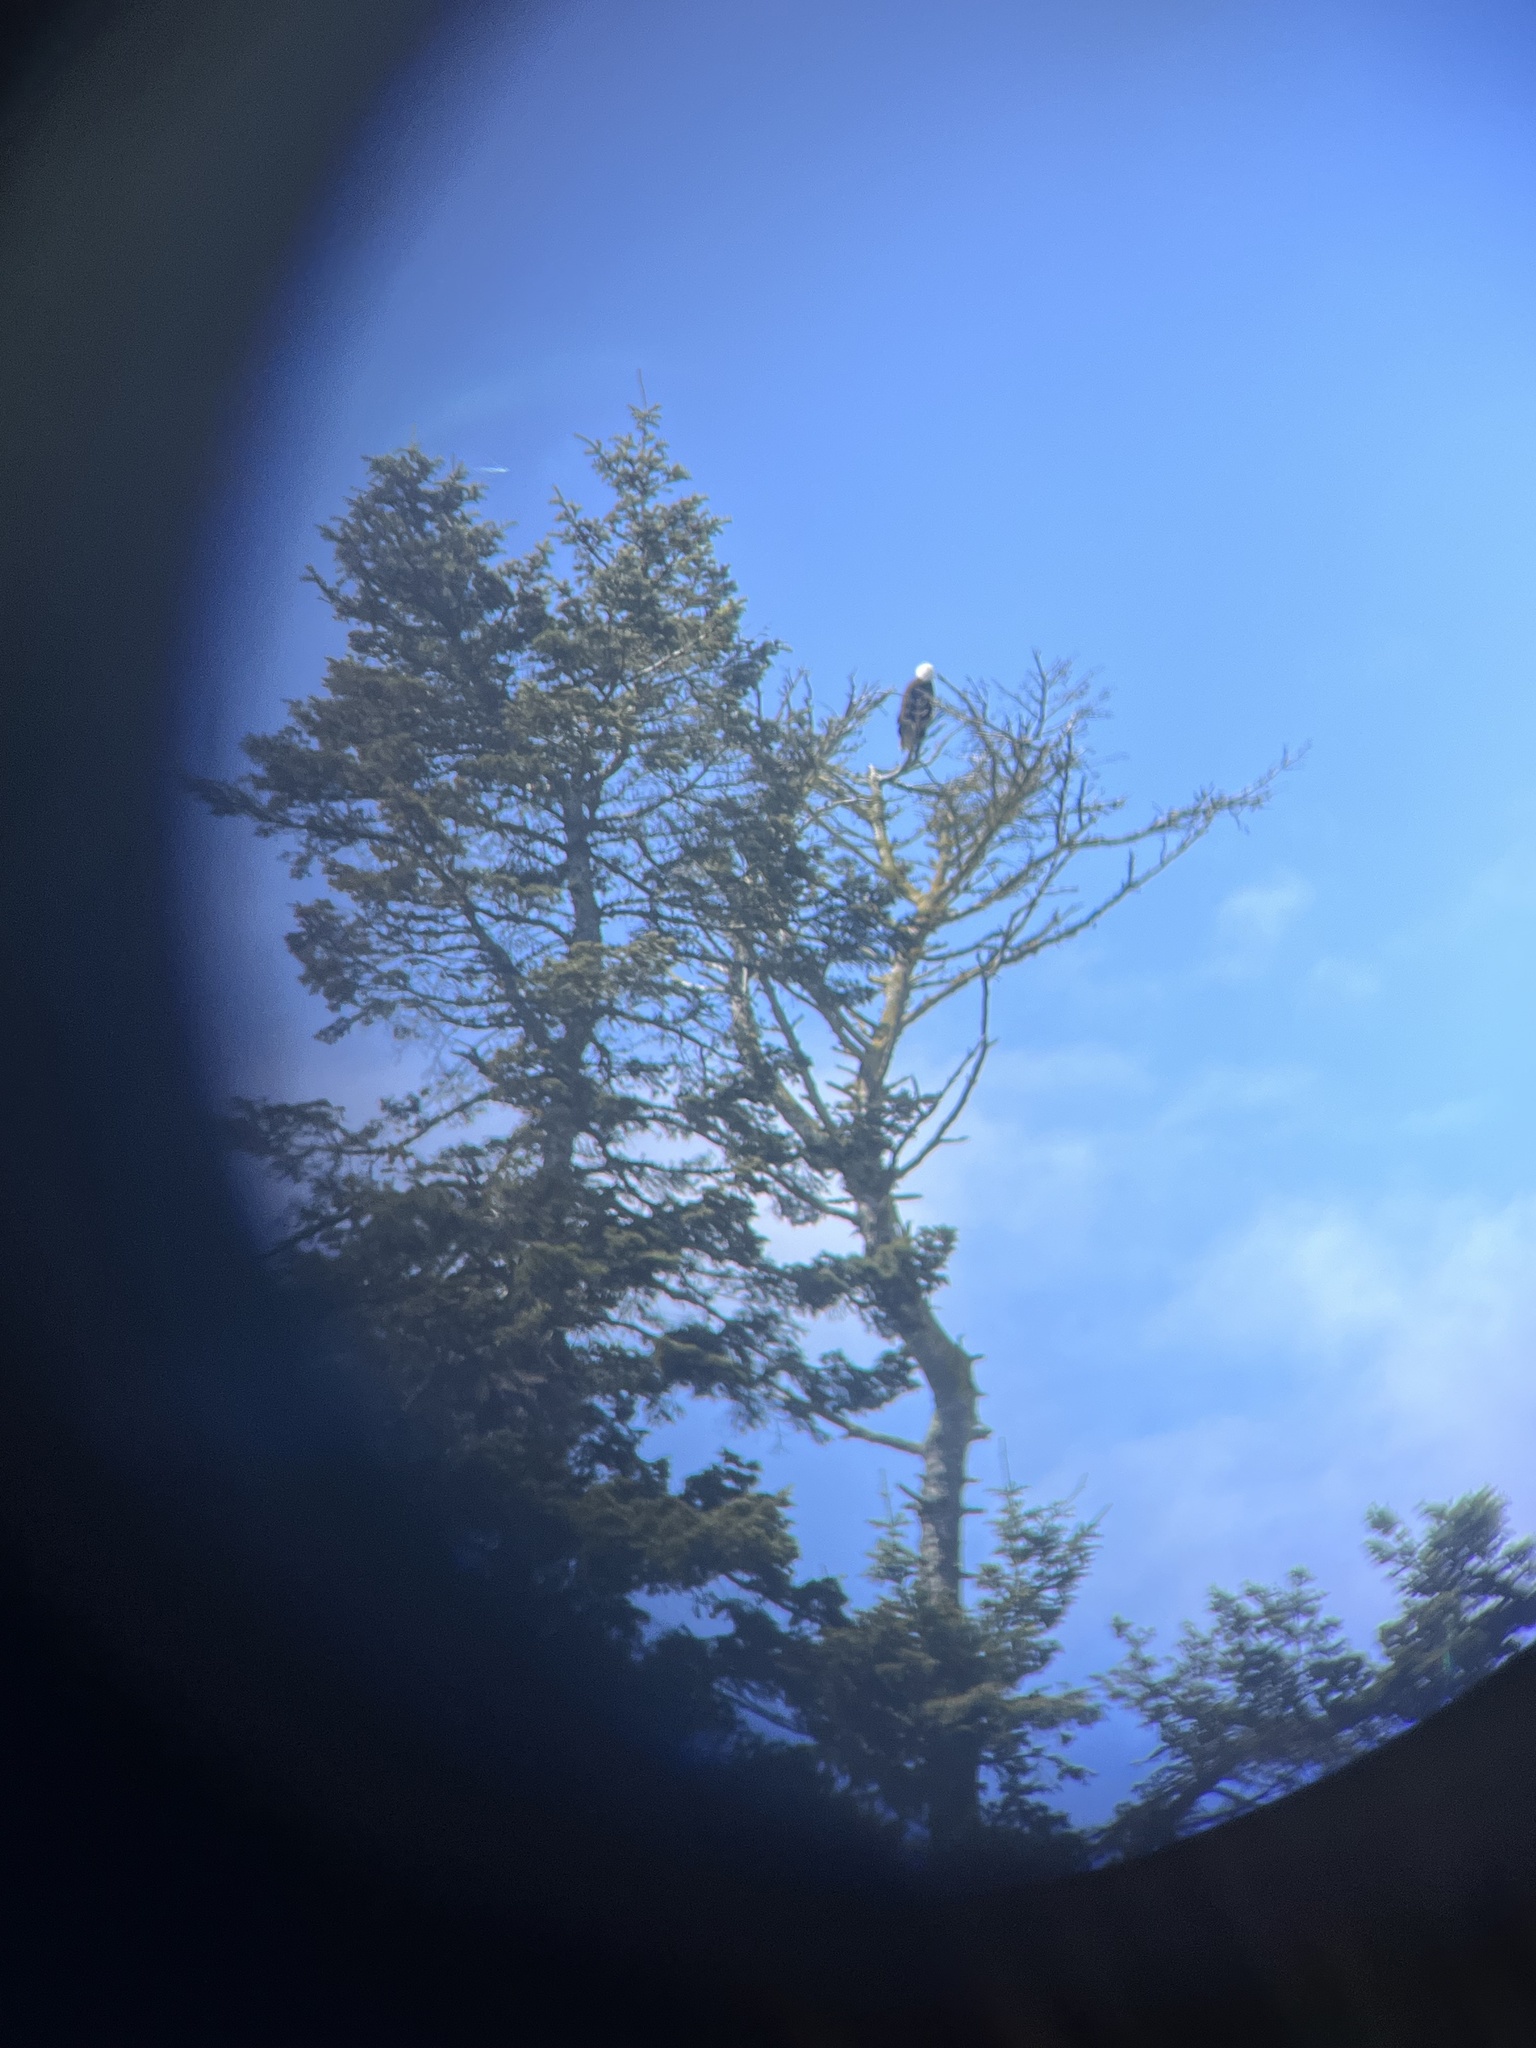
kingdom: Animalia
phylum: Chordata
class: Aves
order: Accipitriformes
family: Accipitridae
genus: Haliaeetus
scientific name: Haliaeetus leucocephalus
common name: Bald eagle
